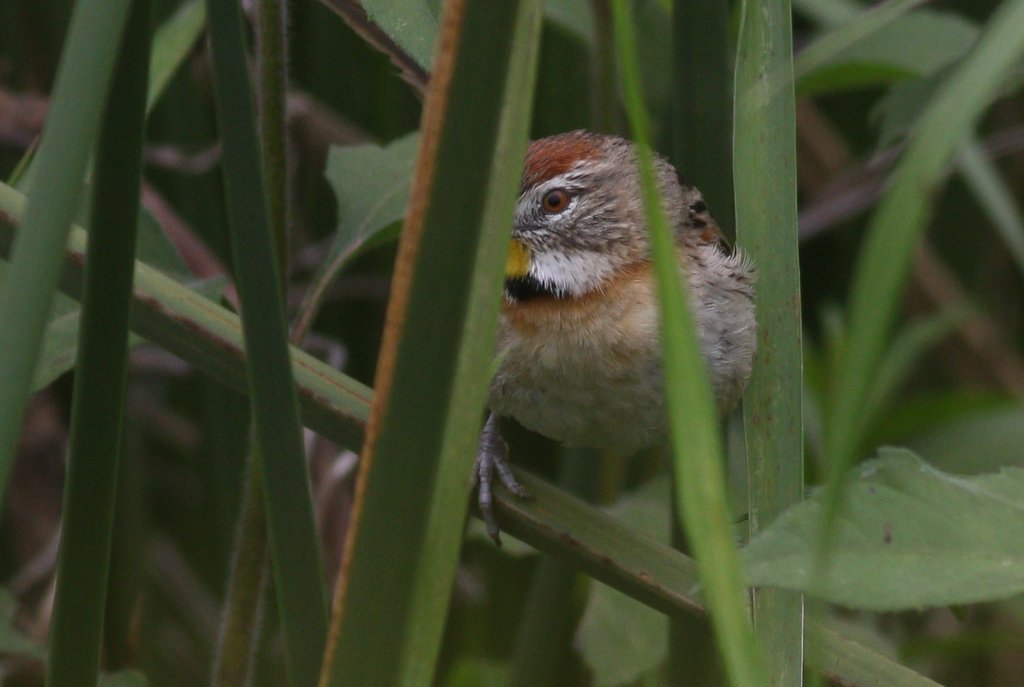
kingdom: Animalia
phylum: Chordata
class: Aves
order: Passeriformes
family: Furnariidae
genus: Schoeniophylax
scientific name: Schoeniophylax phryganophilus
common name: Chotoy spinetail
